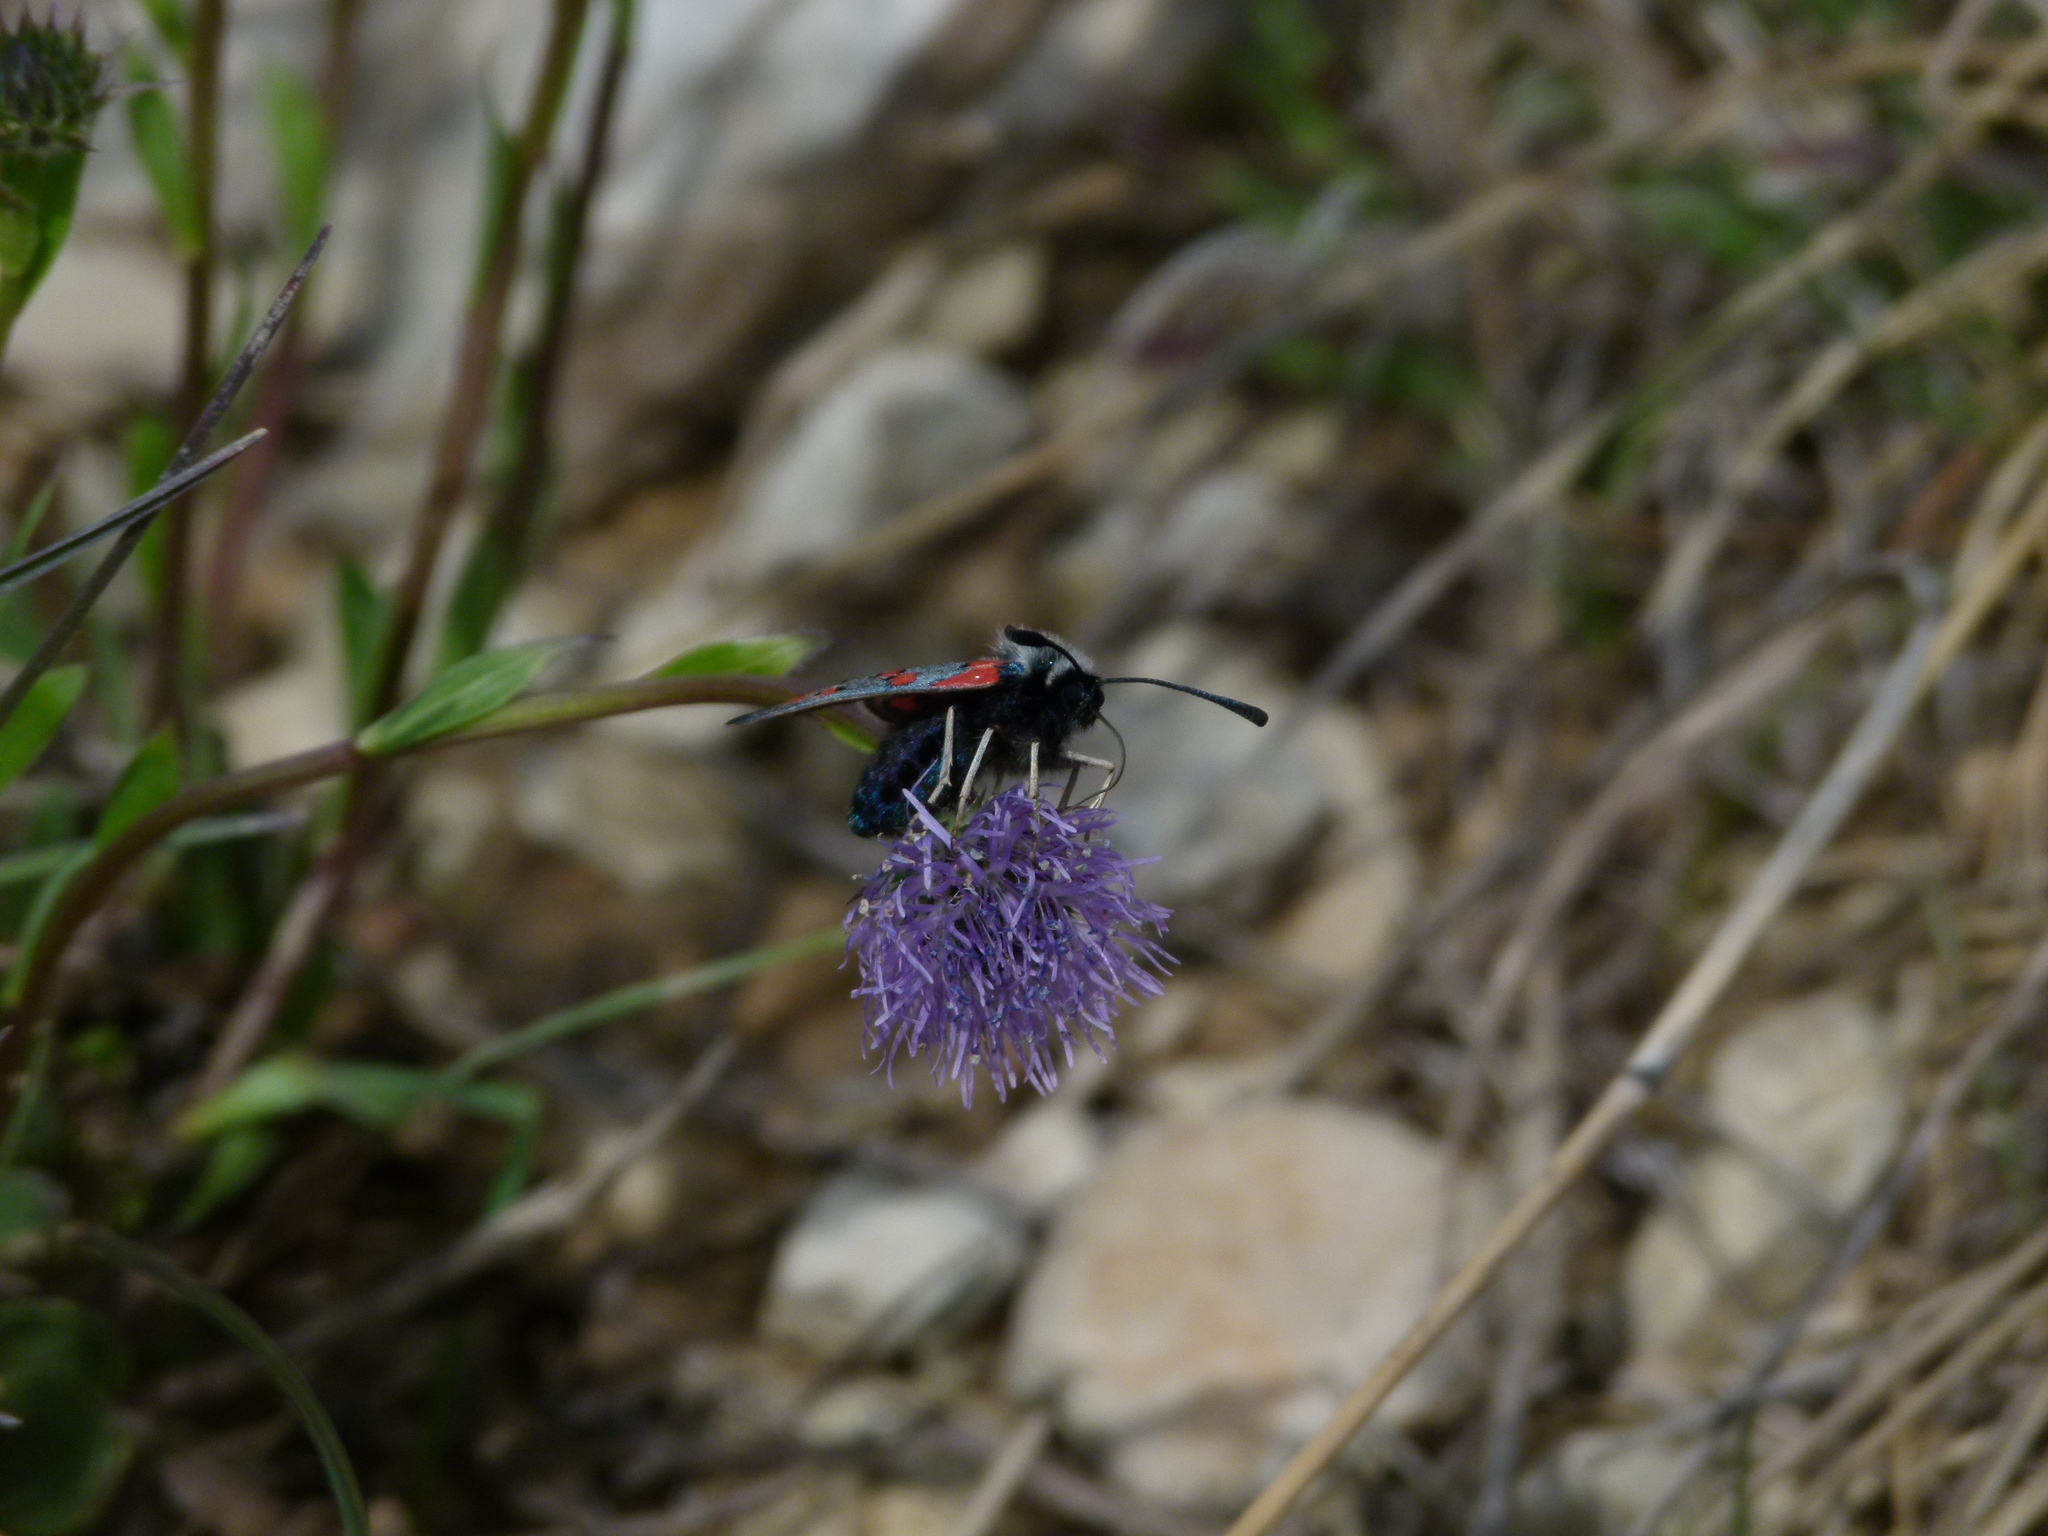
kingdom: Animalia
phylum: Arthropoda
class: Insecta
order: Lepidoptera
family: Zygaenidae
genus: Zygaena
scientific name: Zygaena rhadamanthus
